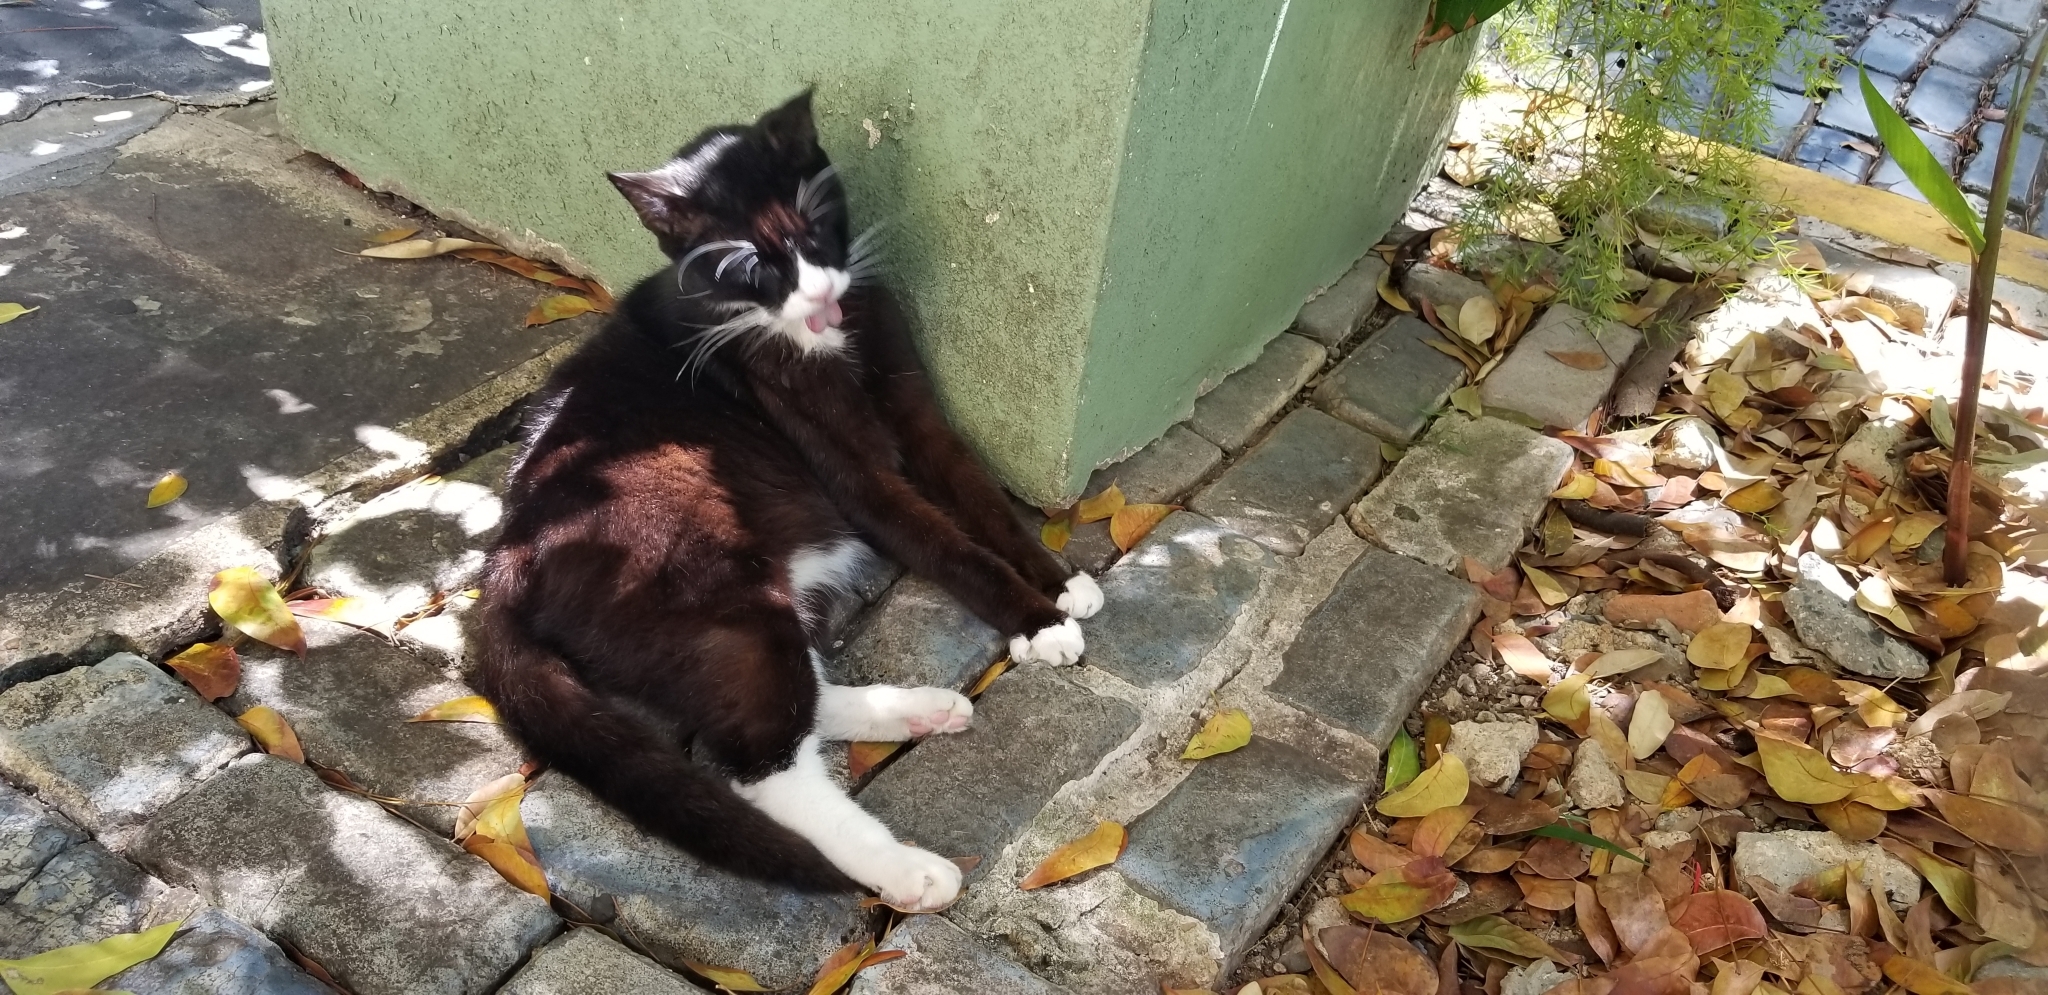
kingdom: Animalia
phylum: Chordata
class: Mammalia
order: Carnivora
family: Felidae
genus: Felis
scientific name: Felis catus
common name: Domestic cat
